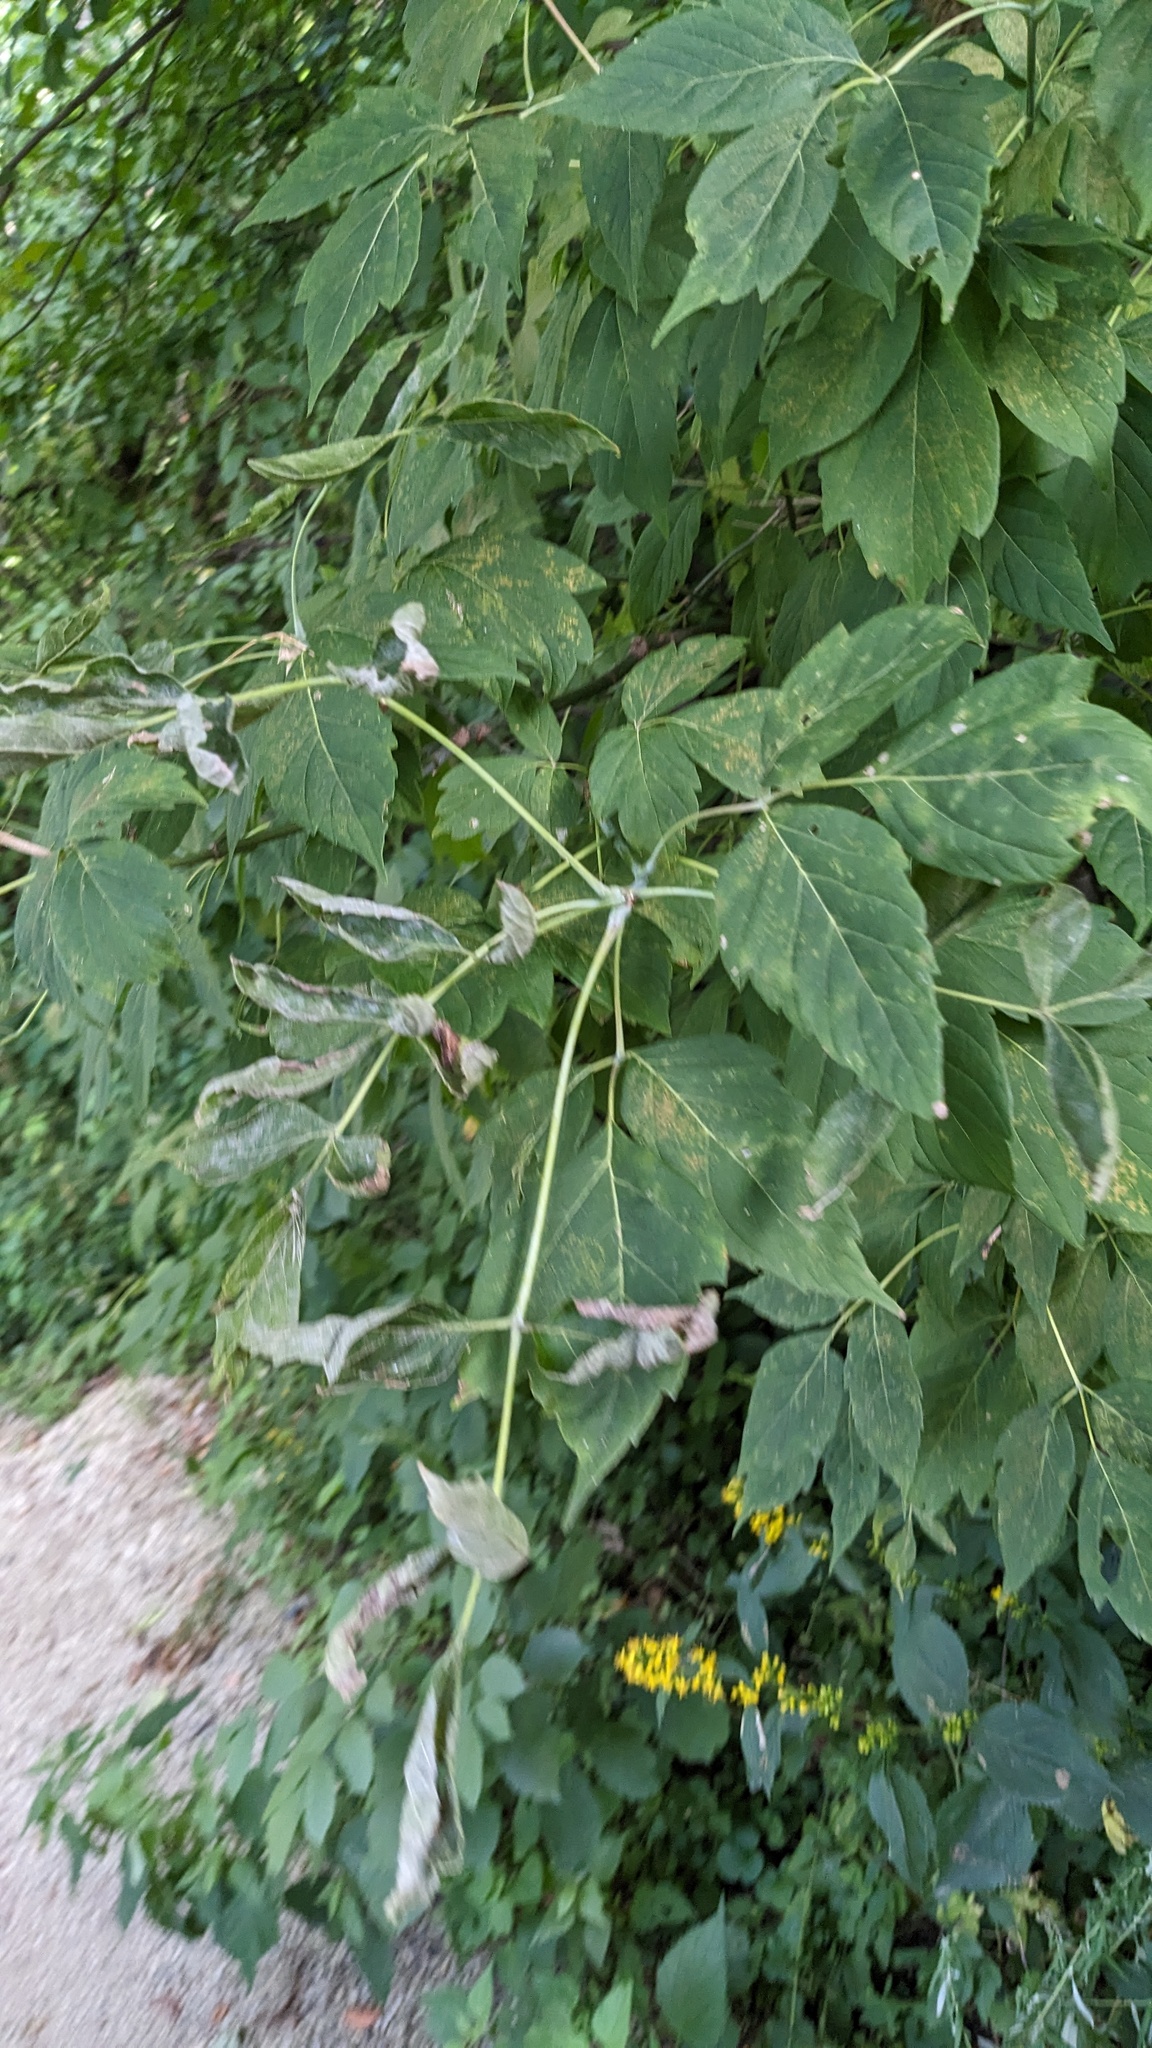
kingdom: Plantae
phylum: Tracheophyta
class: Magnoliopsida
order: Sapindales
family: Sapindaceae
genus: Acer
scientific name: Acer negundo
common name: Ashleaf maple
